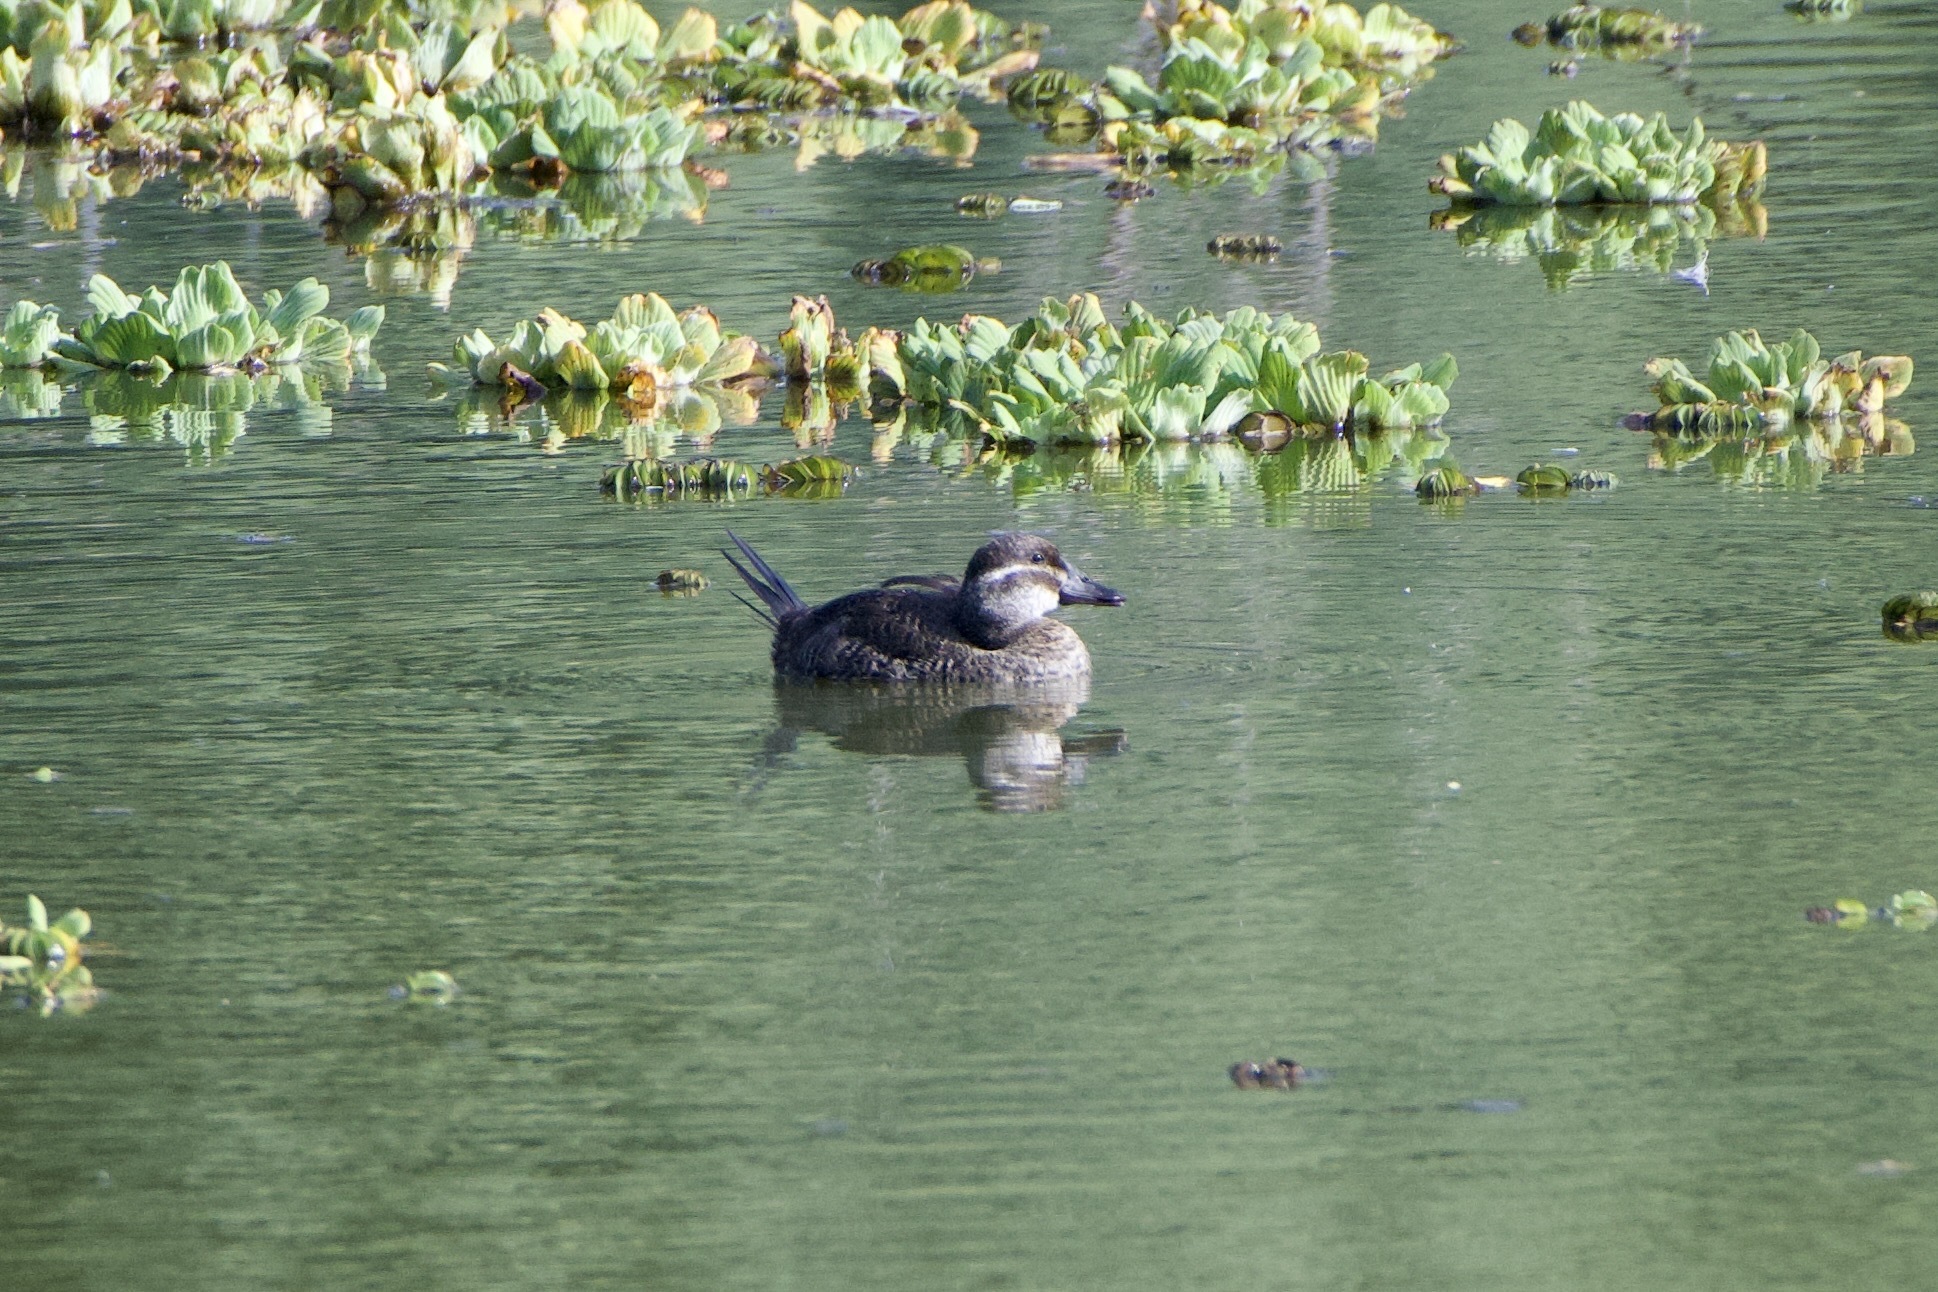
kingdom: Animalia
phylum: Chordata
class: Aves
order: Anseriformes
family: Anatidae
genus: Oxyura
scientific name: Oxyura vittata
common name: Lake duck
